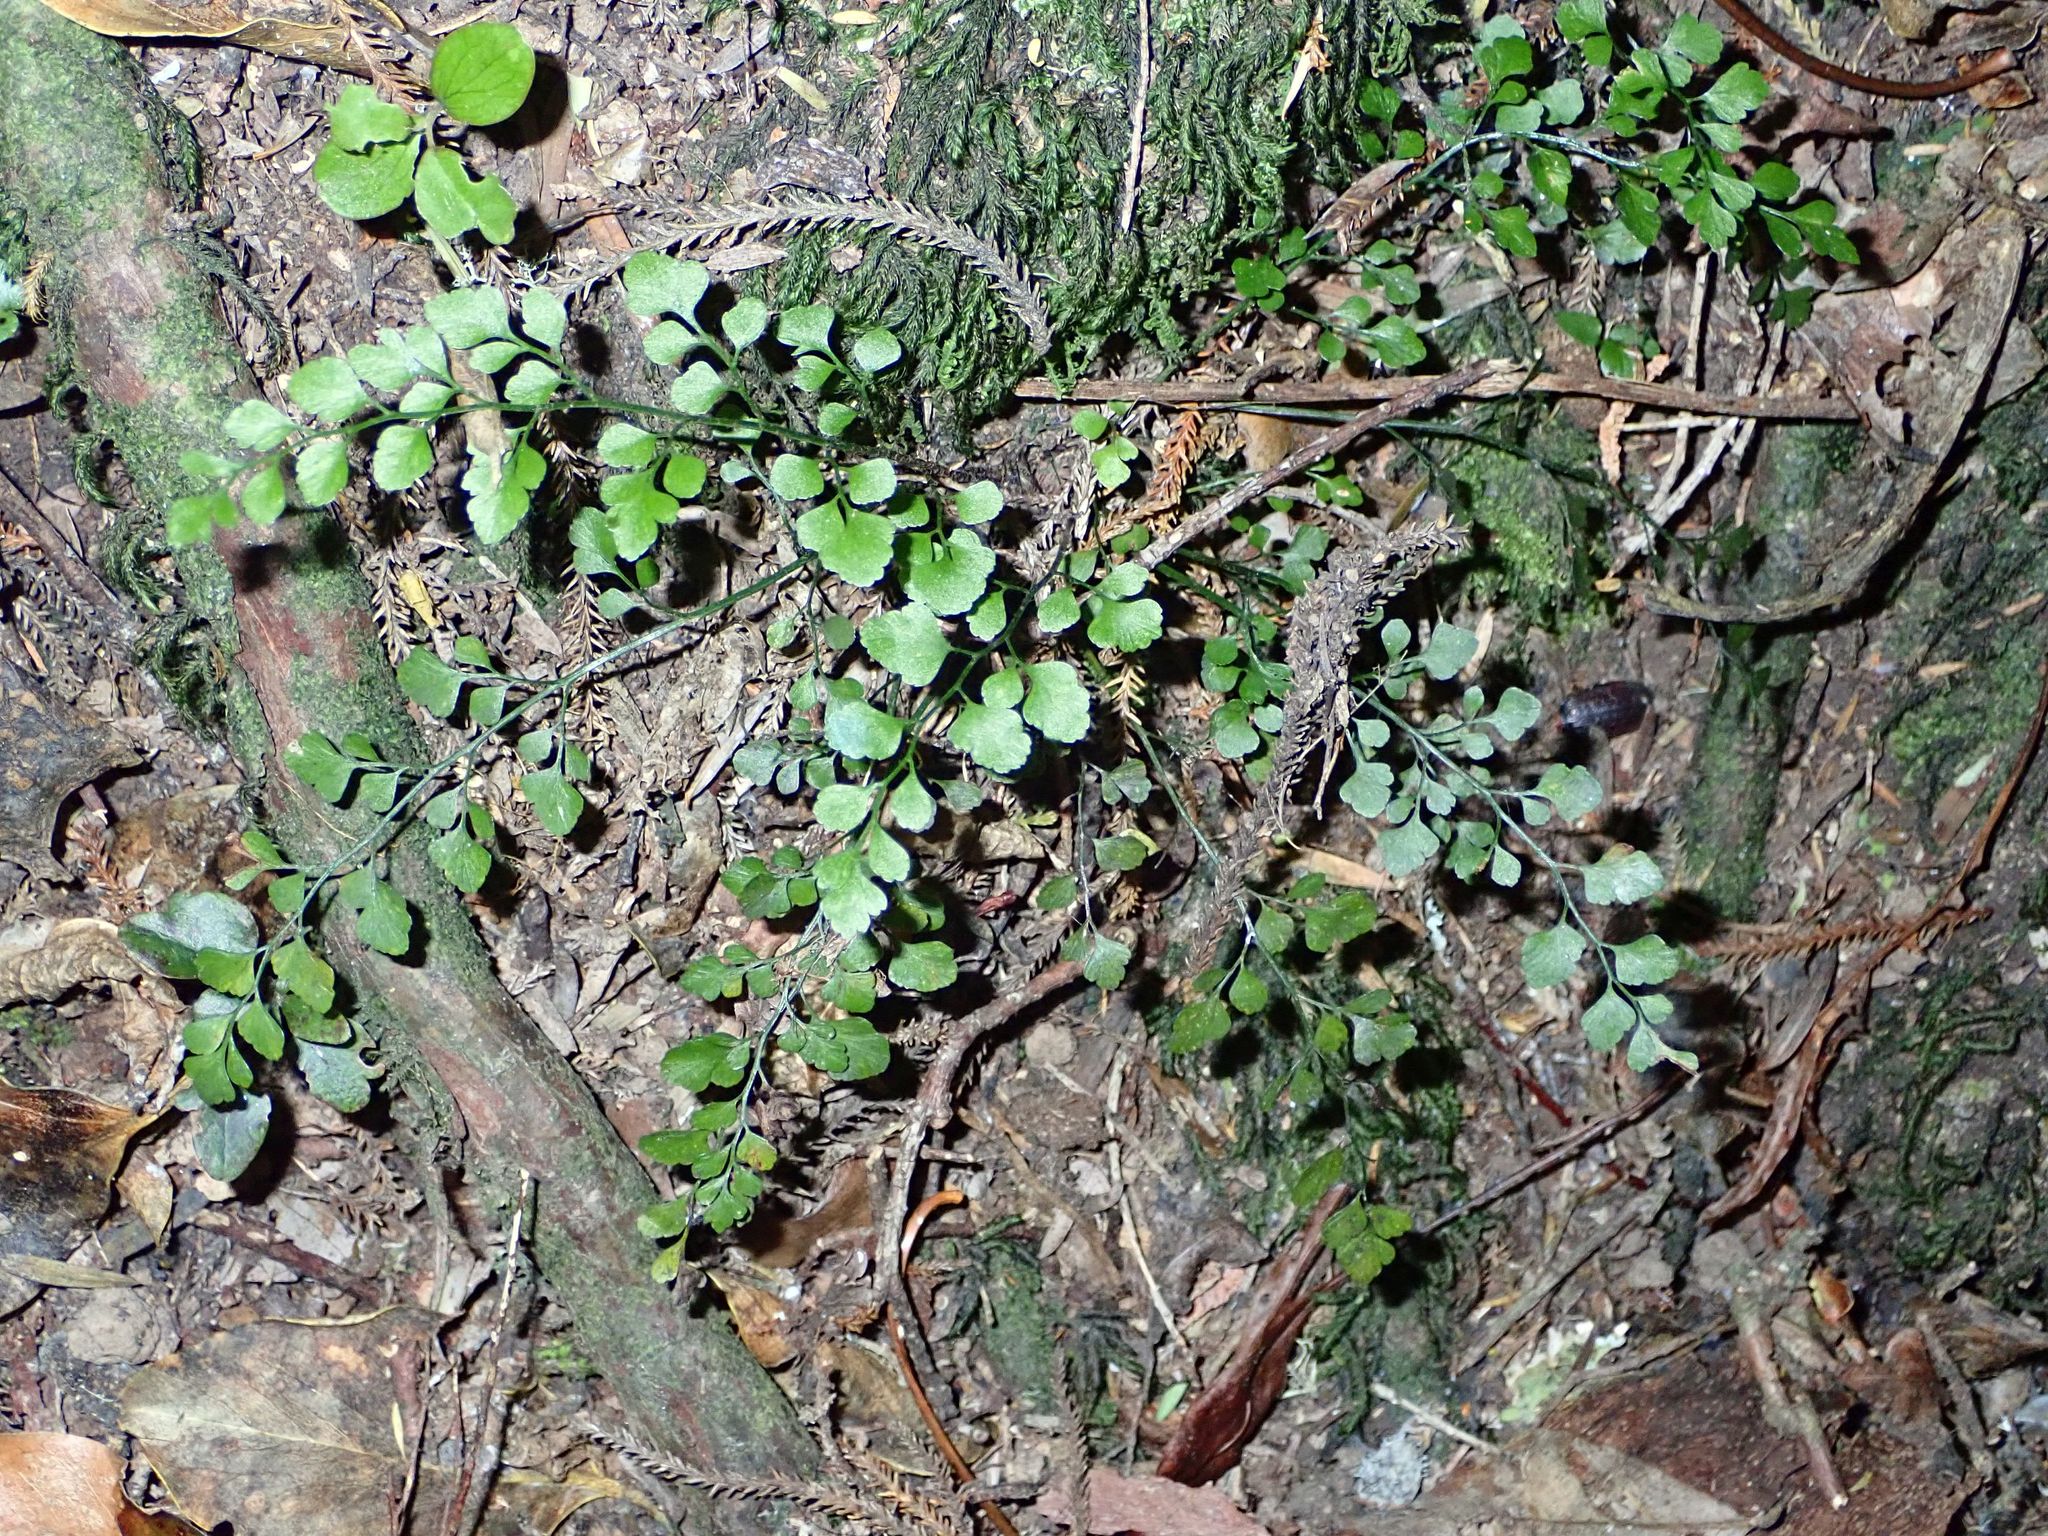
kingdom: Plantae
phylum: Tracheophyta
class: Polypodiopsida
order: Polypodiales
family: Aspleniaceae
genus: Asplenium
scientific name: Asplenium hookerianum
